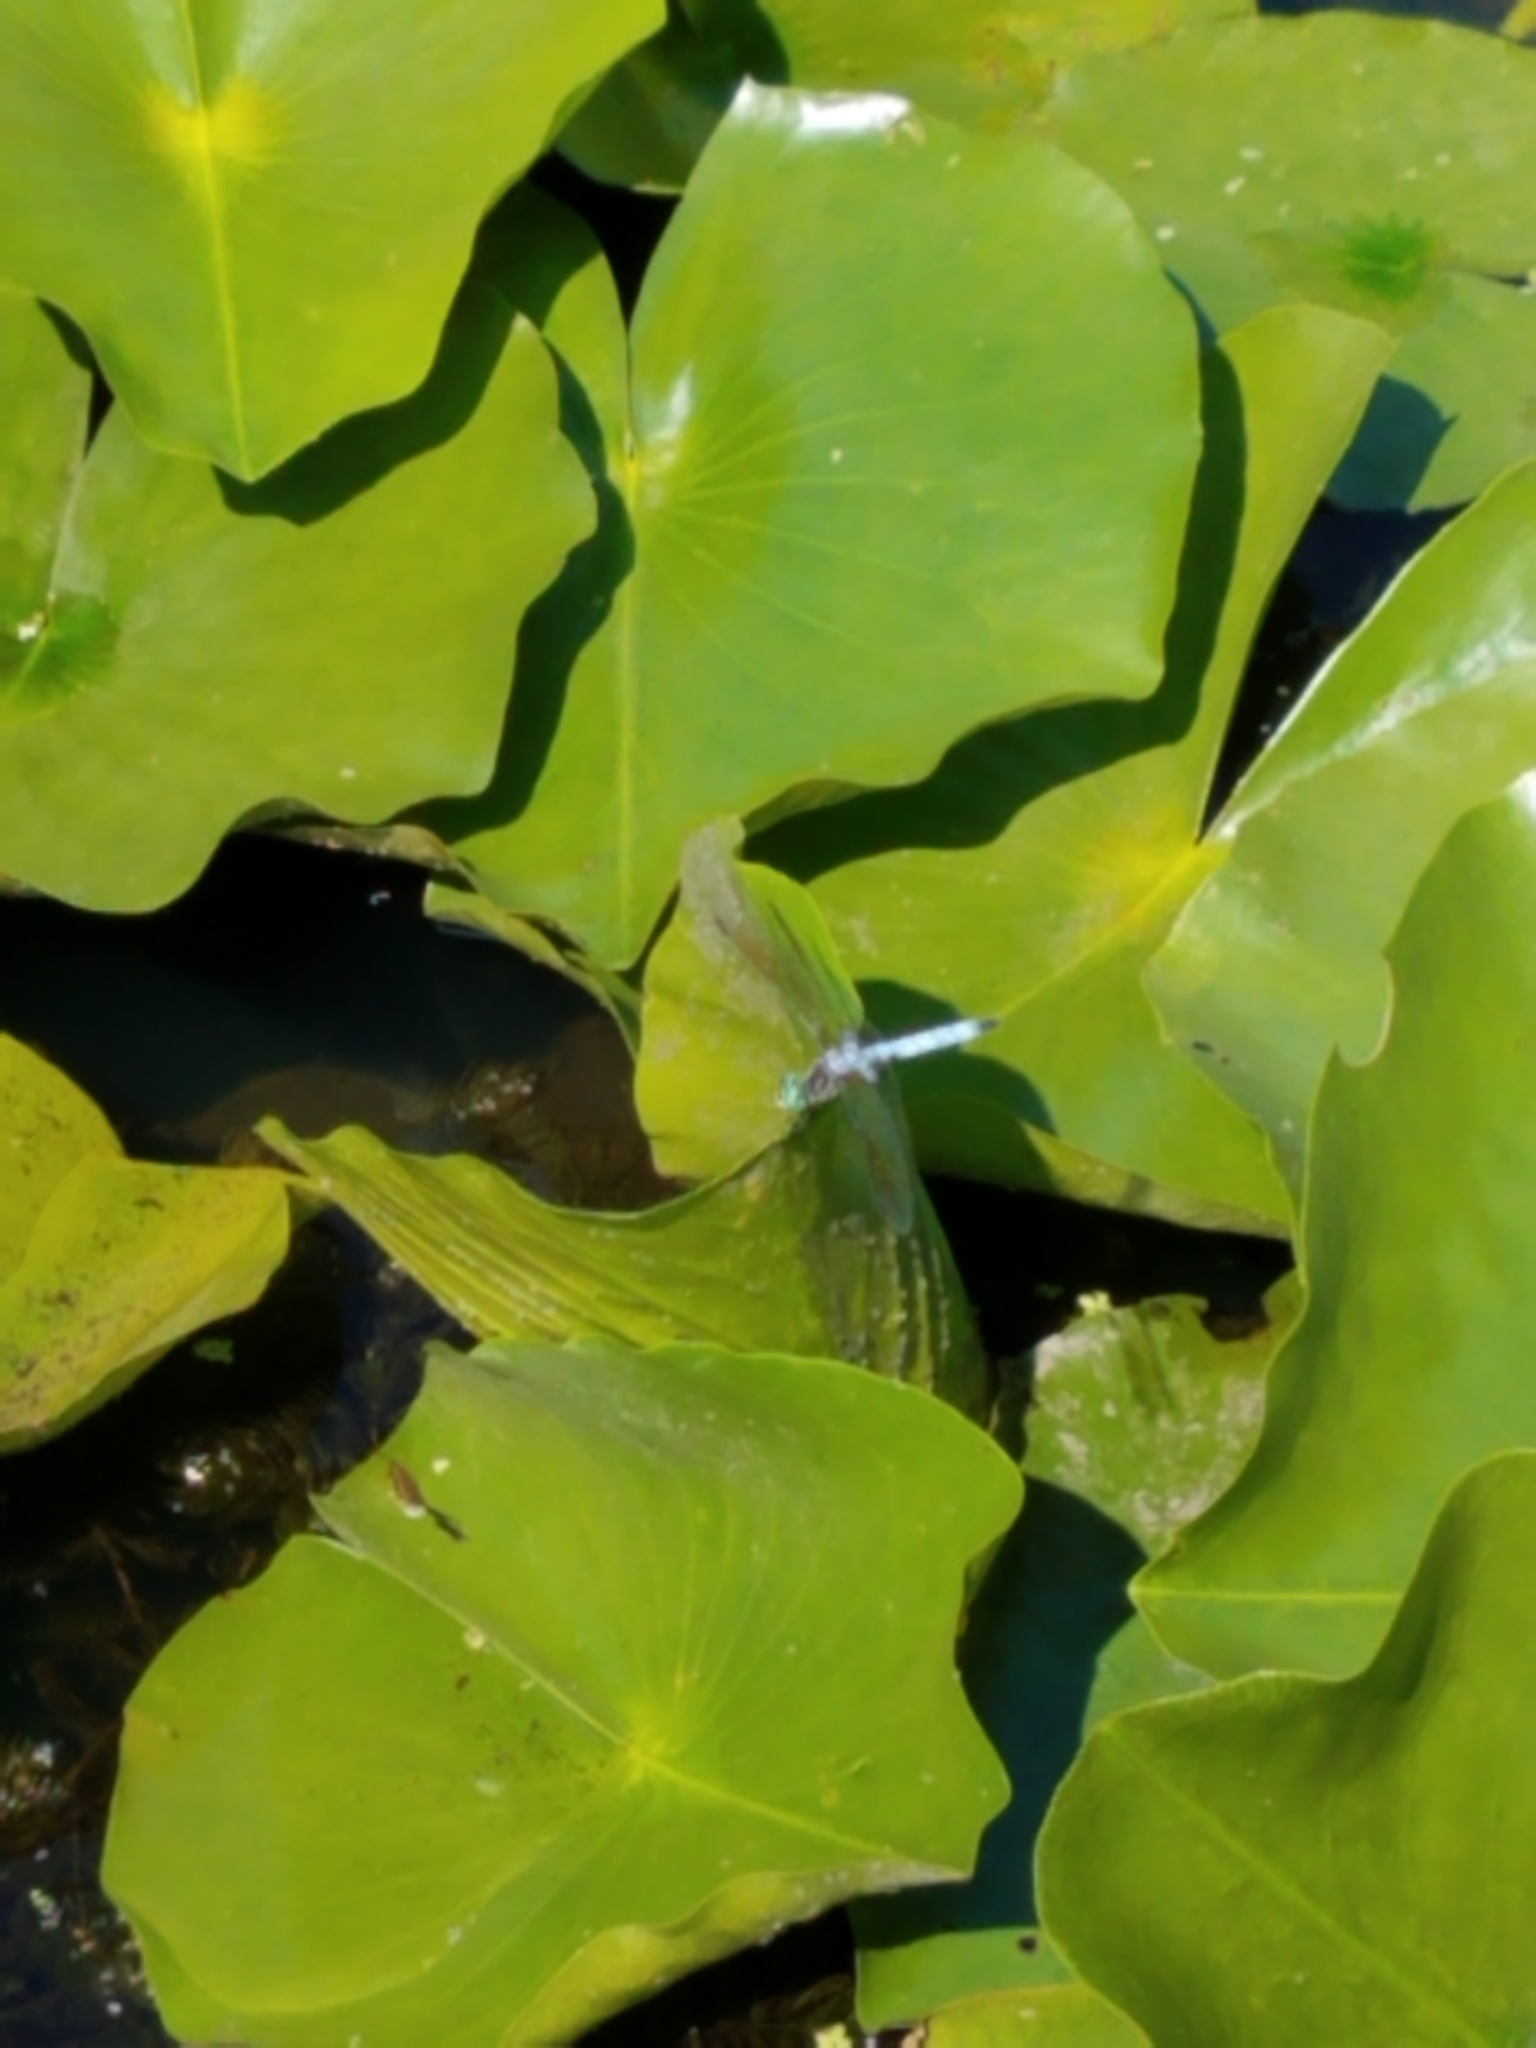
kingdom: Animalia
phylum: Arthropoda
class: Insecta
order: Odonata
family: Libellulidae
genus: Pachydiplax
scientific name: Pachydiplax longipennis
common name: Blue dasher
